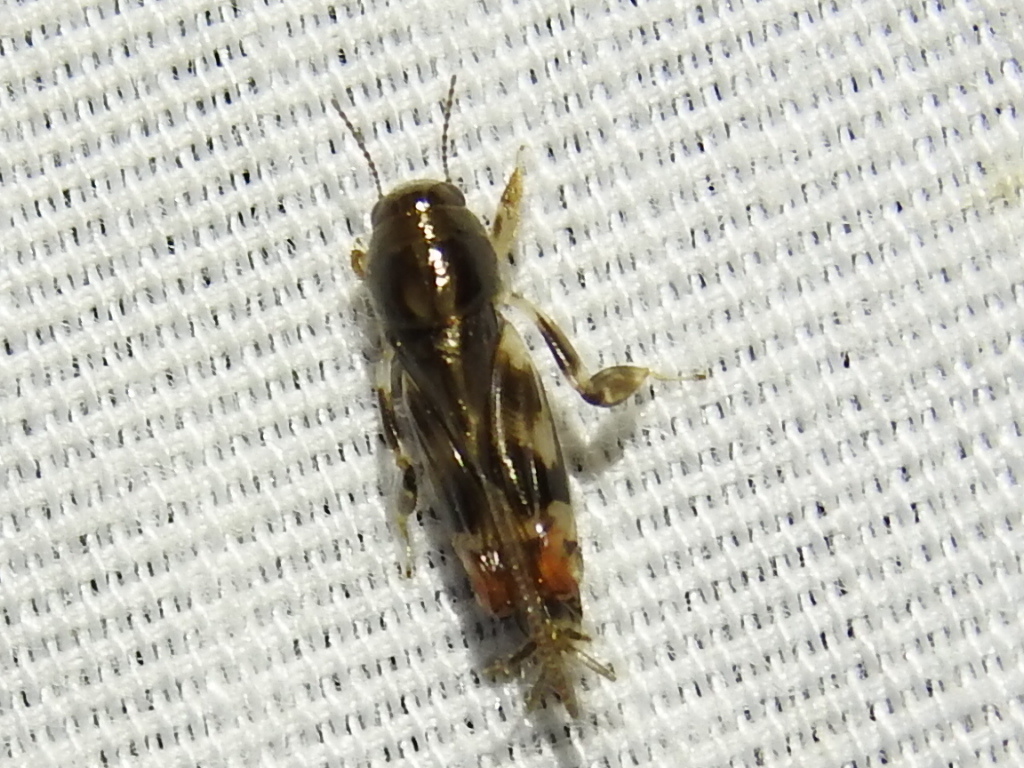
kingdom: Animalia
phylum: Arthropoda
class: Insecta
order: Orthoptera
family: Tridactylidae
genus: Neotridactylus
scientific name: Neotridactylus apicialis
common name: Larger pygmy locust
